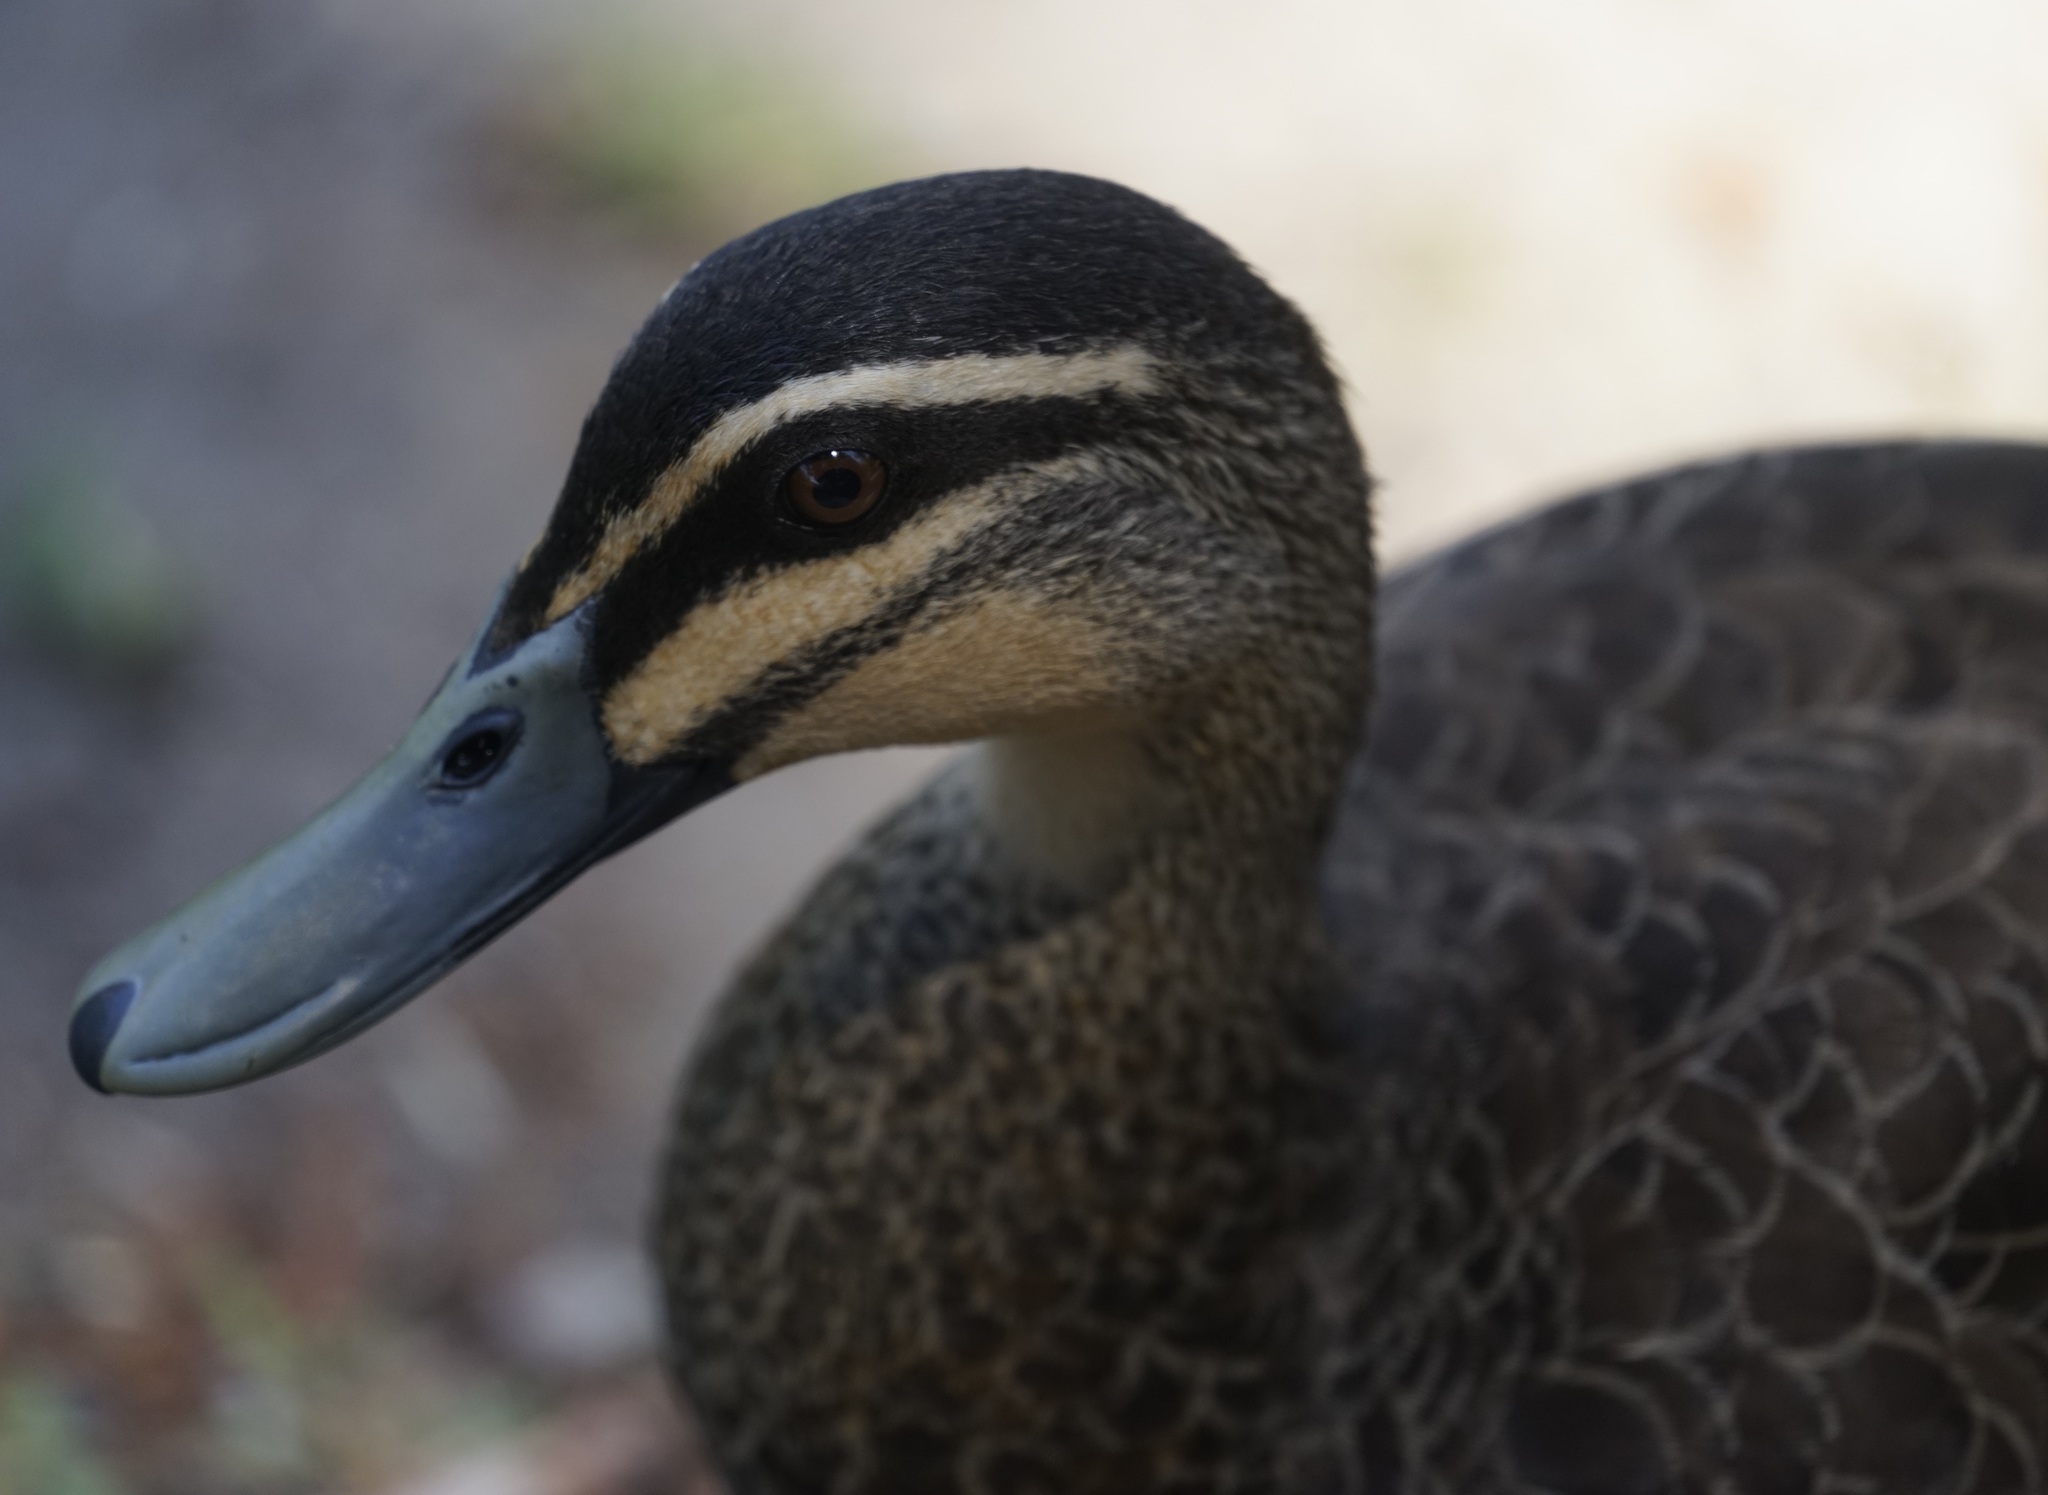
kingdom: Animalia
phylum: Chordata
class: Aves
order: Anseriformes
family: Anatidae
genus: Anas
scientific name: Anas
